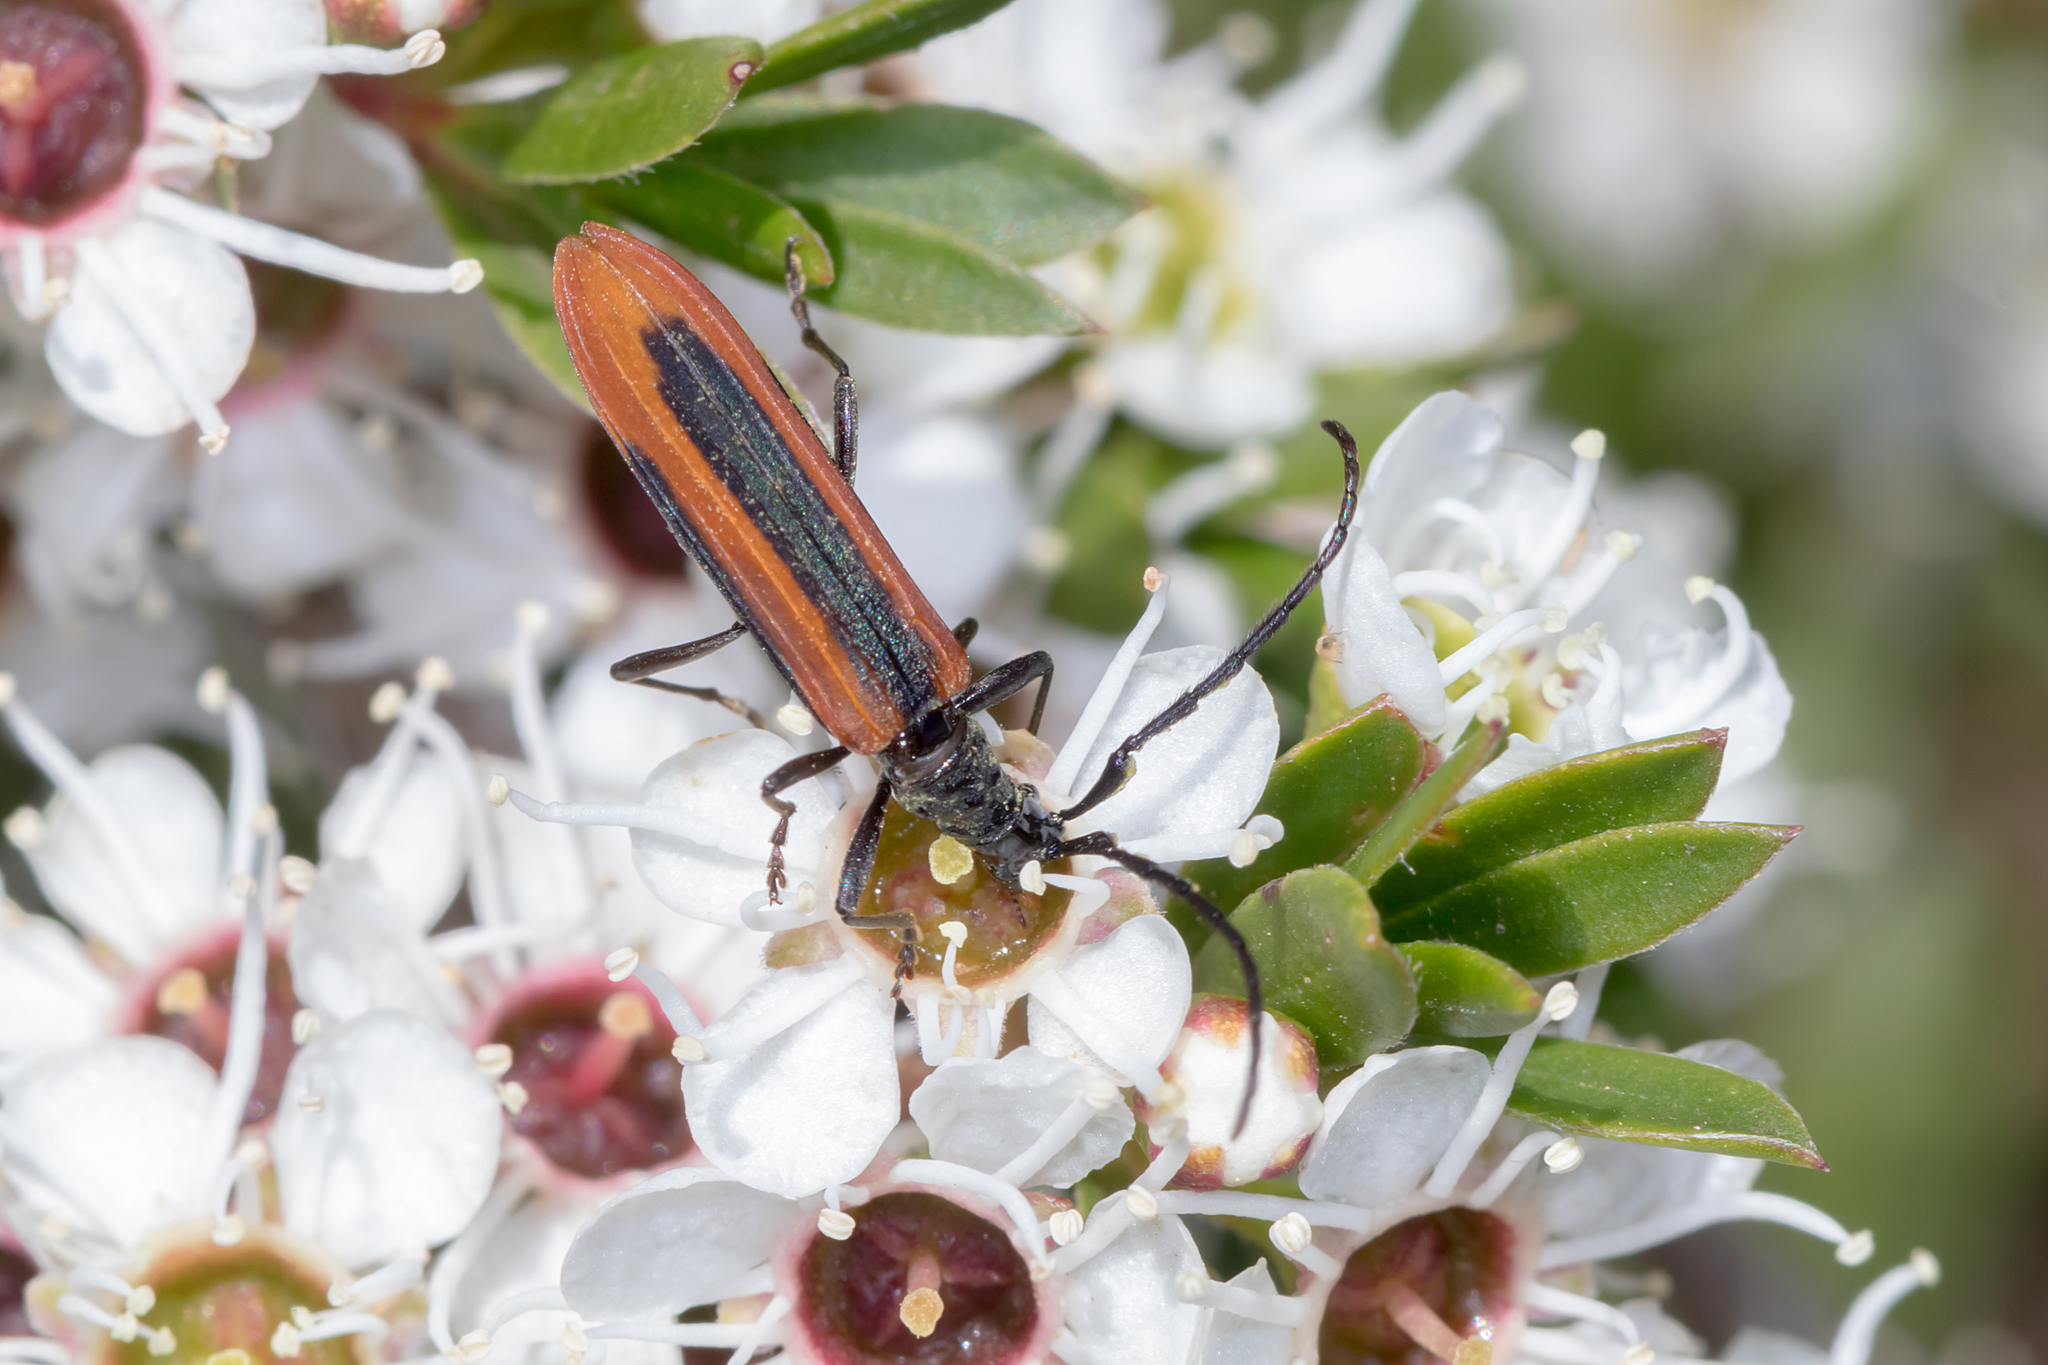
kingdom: Animalia
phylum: Arthropoda
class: Insecta
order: Coleoptera
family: Cerambycidae
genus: Stenoderus
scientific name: Stenoderus suturalis
